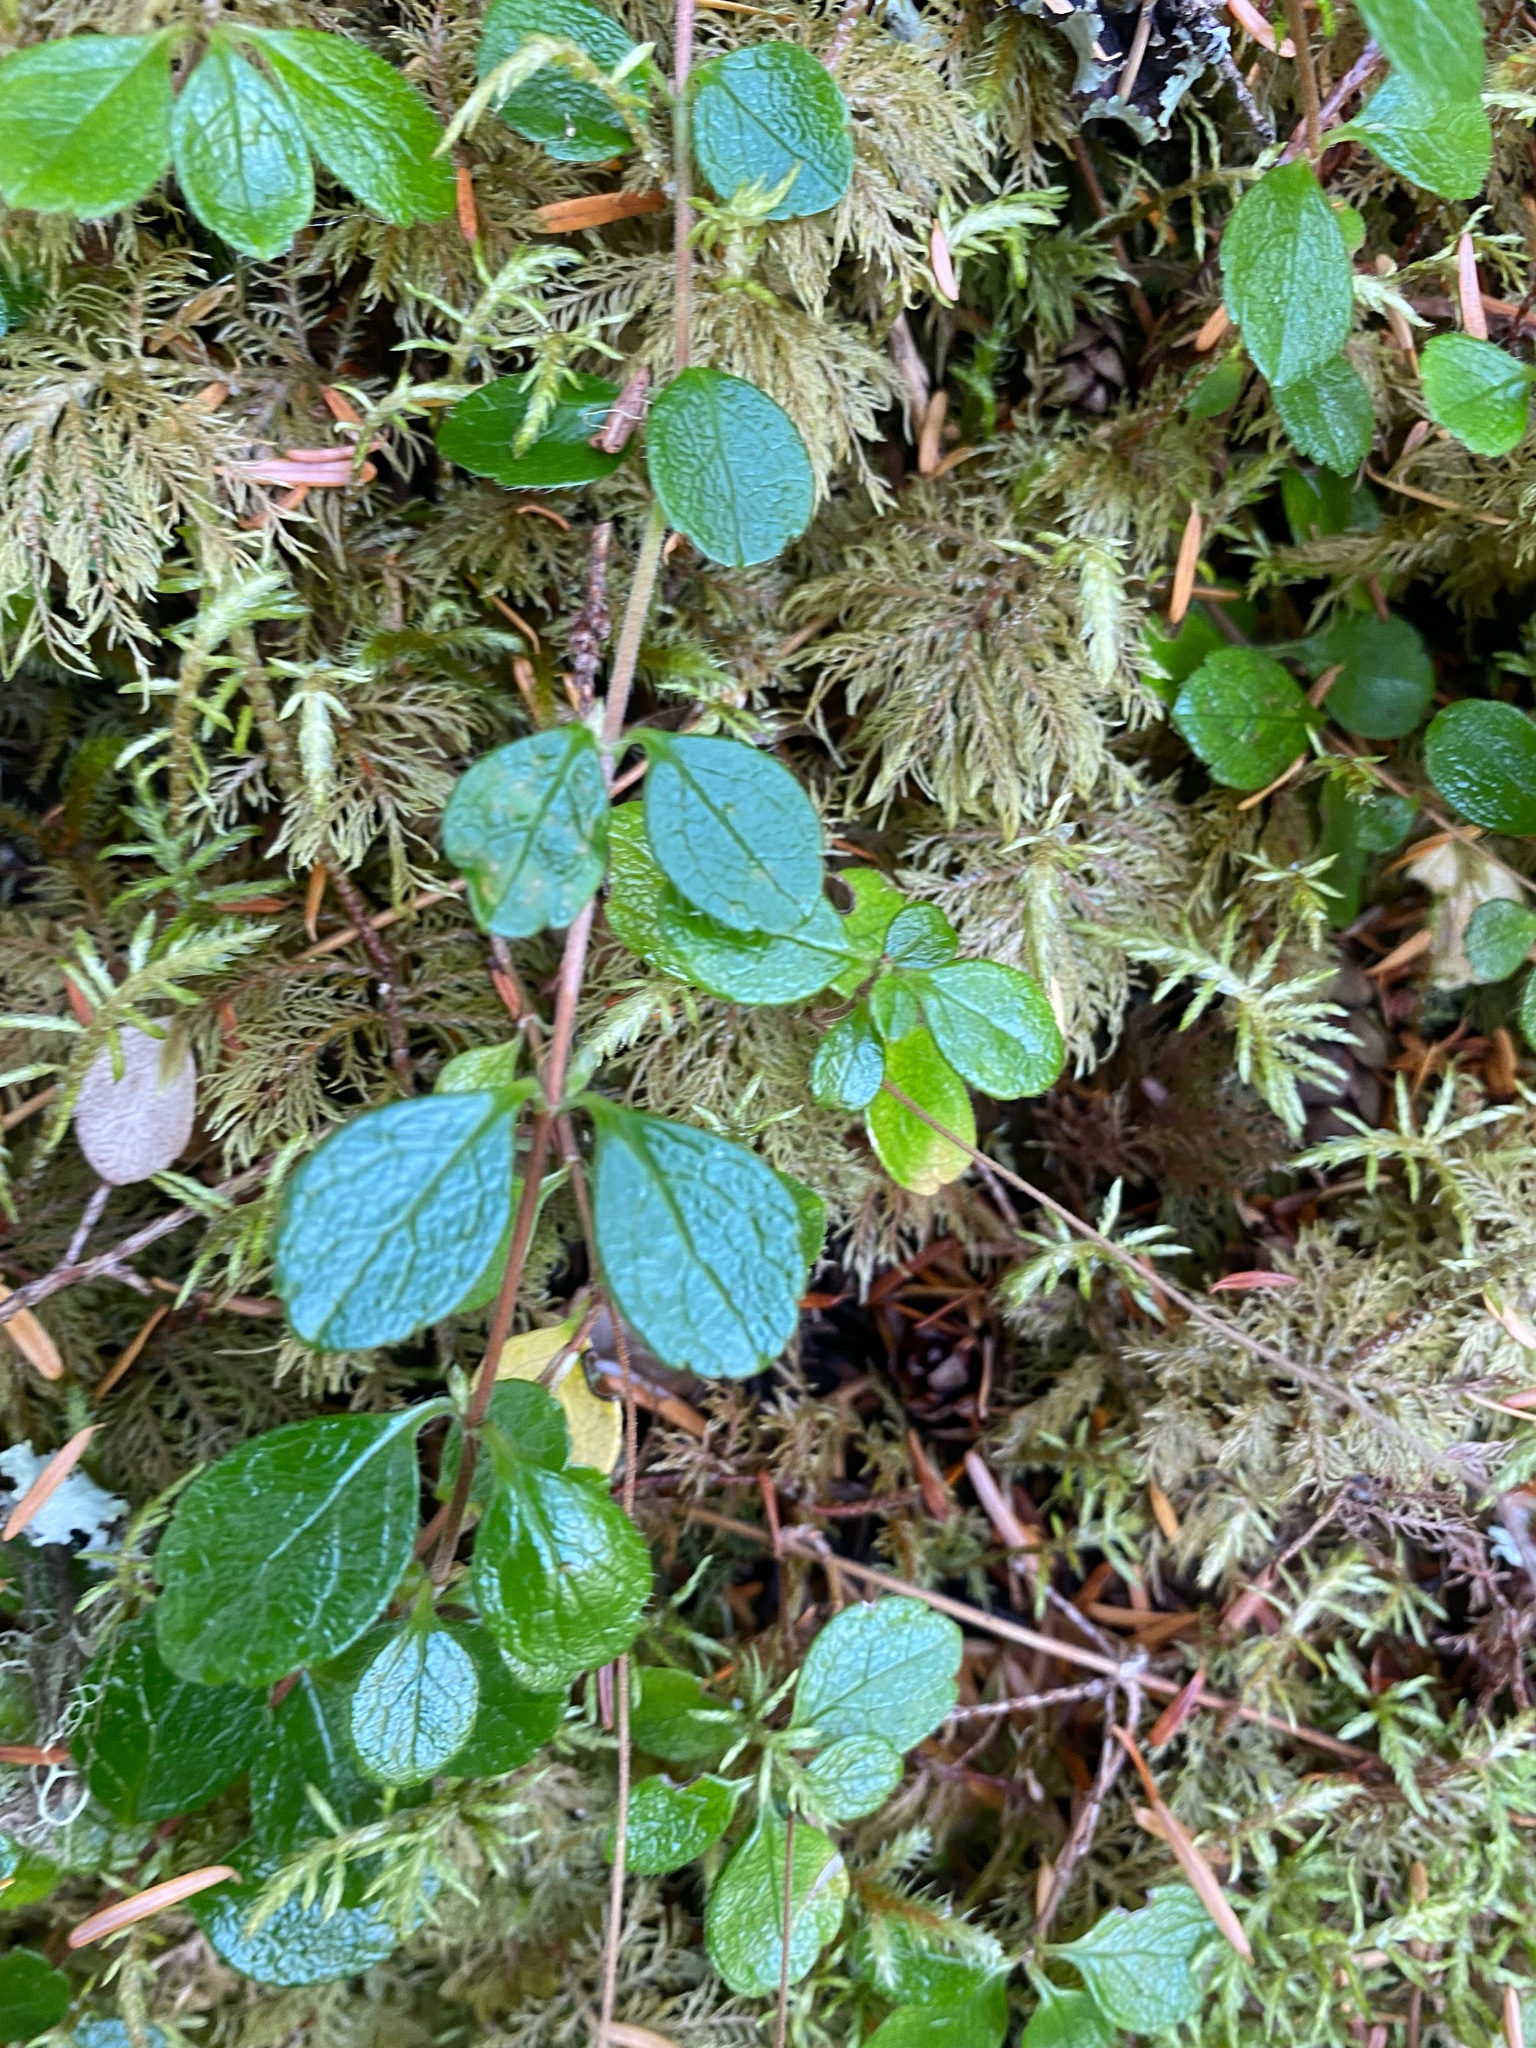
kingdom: Plantae
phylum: Tracheophyta
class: Magnoliopsida
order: Dipsacales
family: Caprifoliaceae
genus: Linnaea
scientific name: Linnaea borealis
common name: Twinflower
